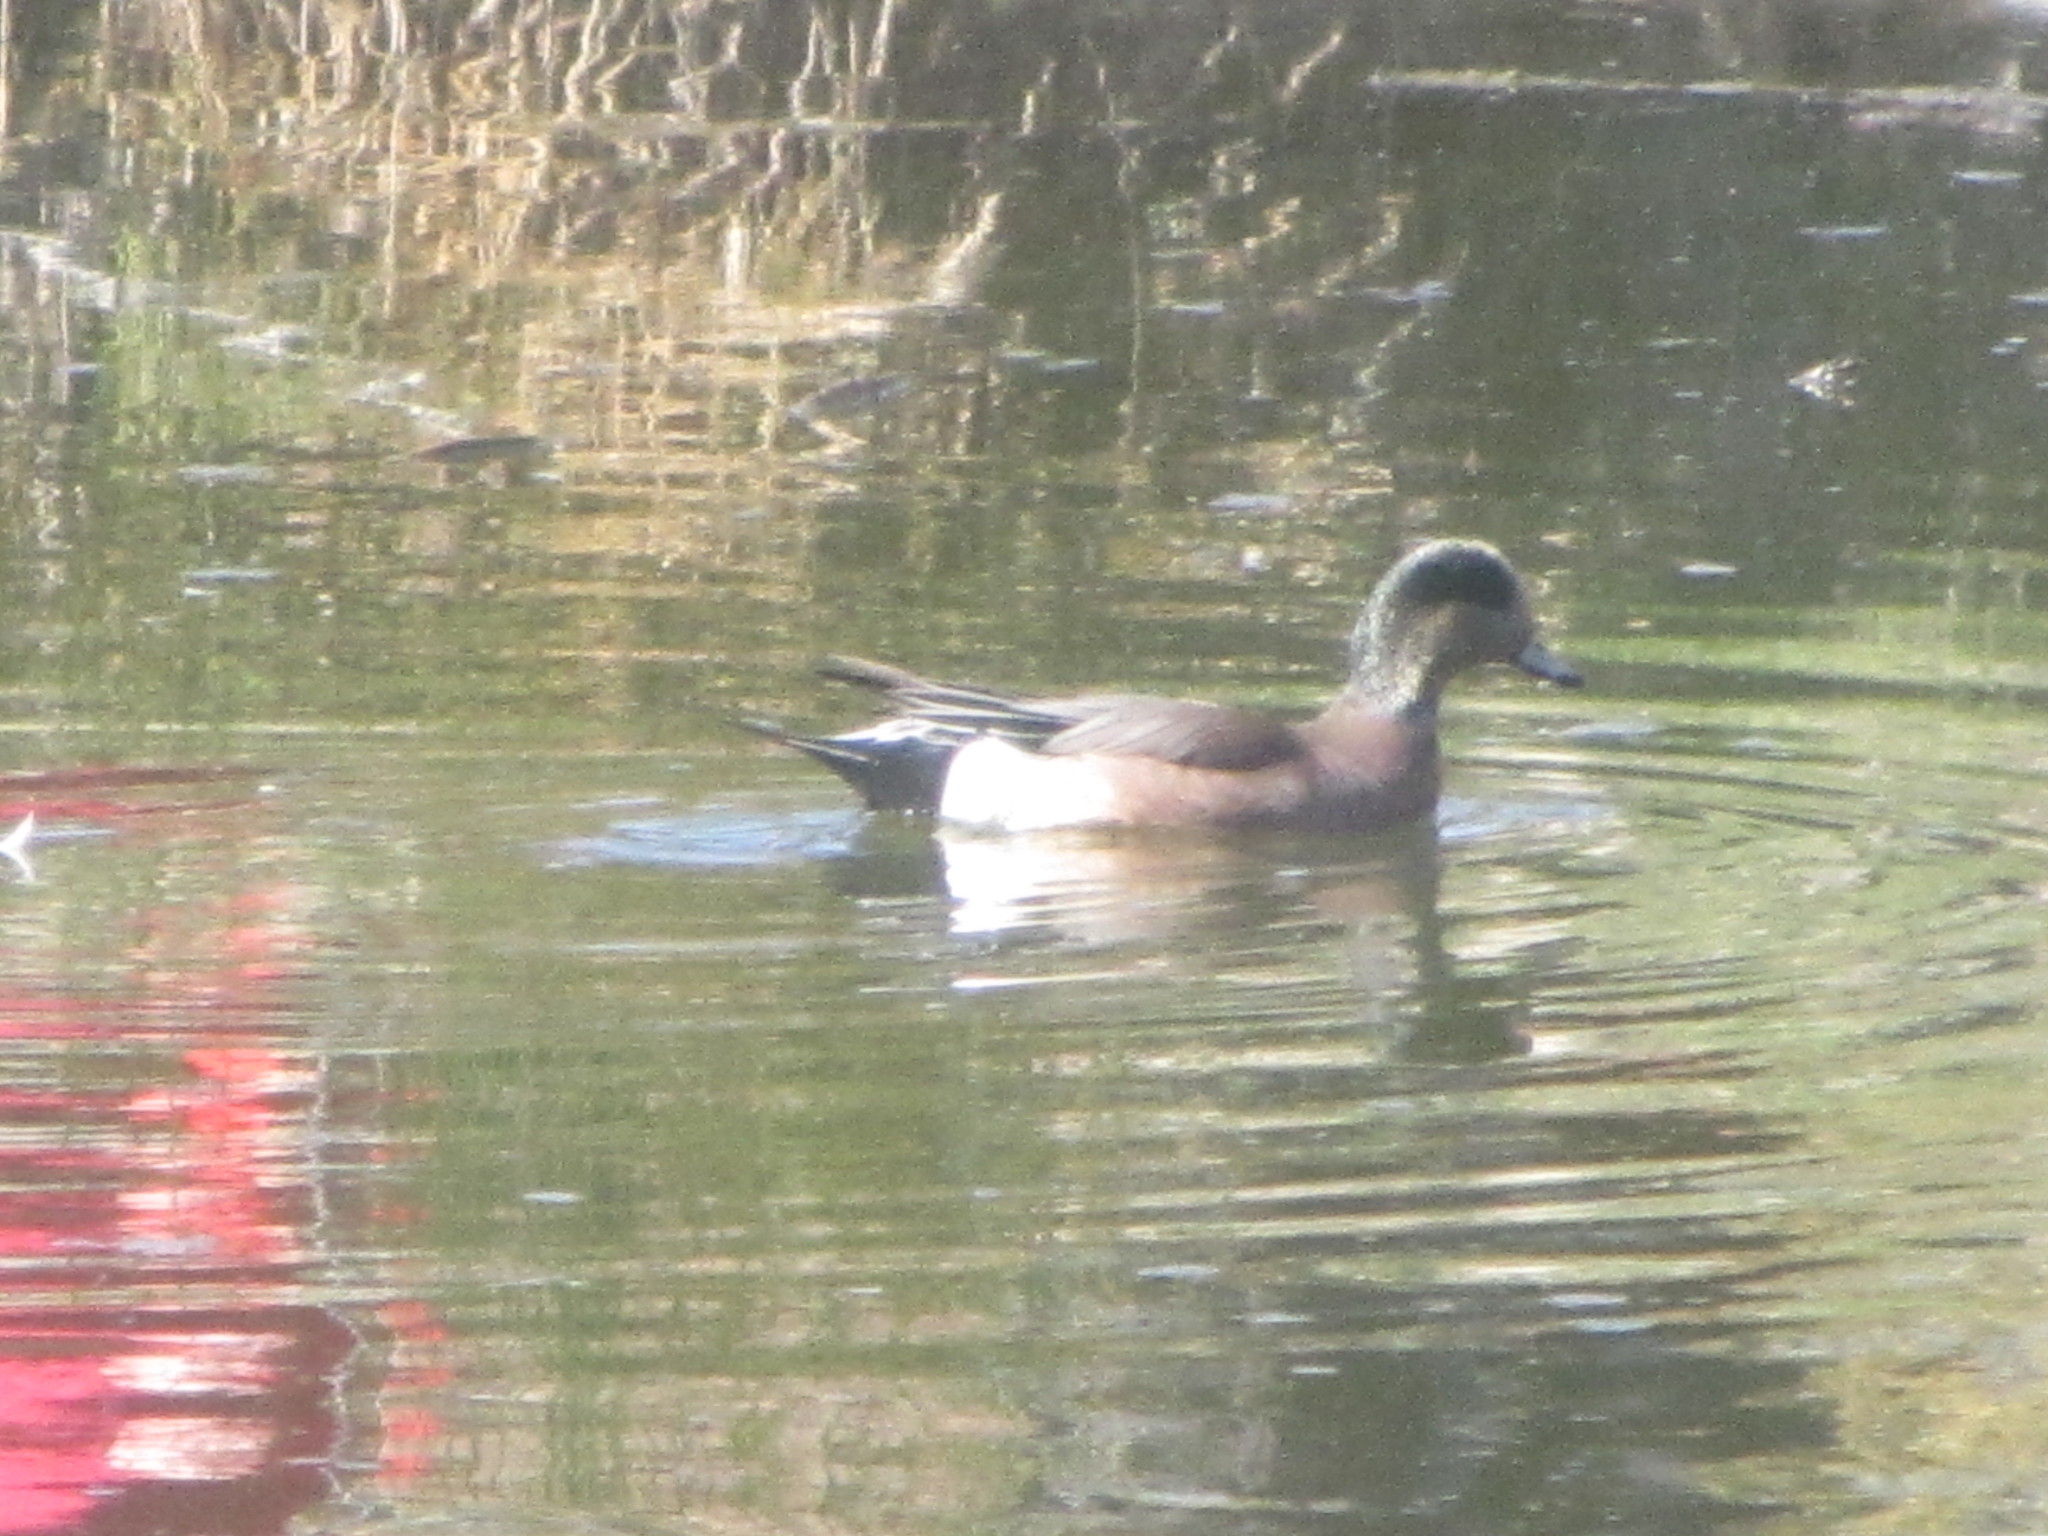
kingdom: Animalia
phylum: Chordata
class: Aves
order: Anseriformes
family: Anatidae
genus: Mareca
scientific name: Mareca americana
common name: American wigeon
